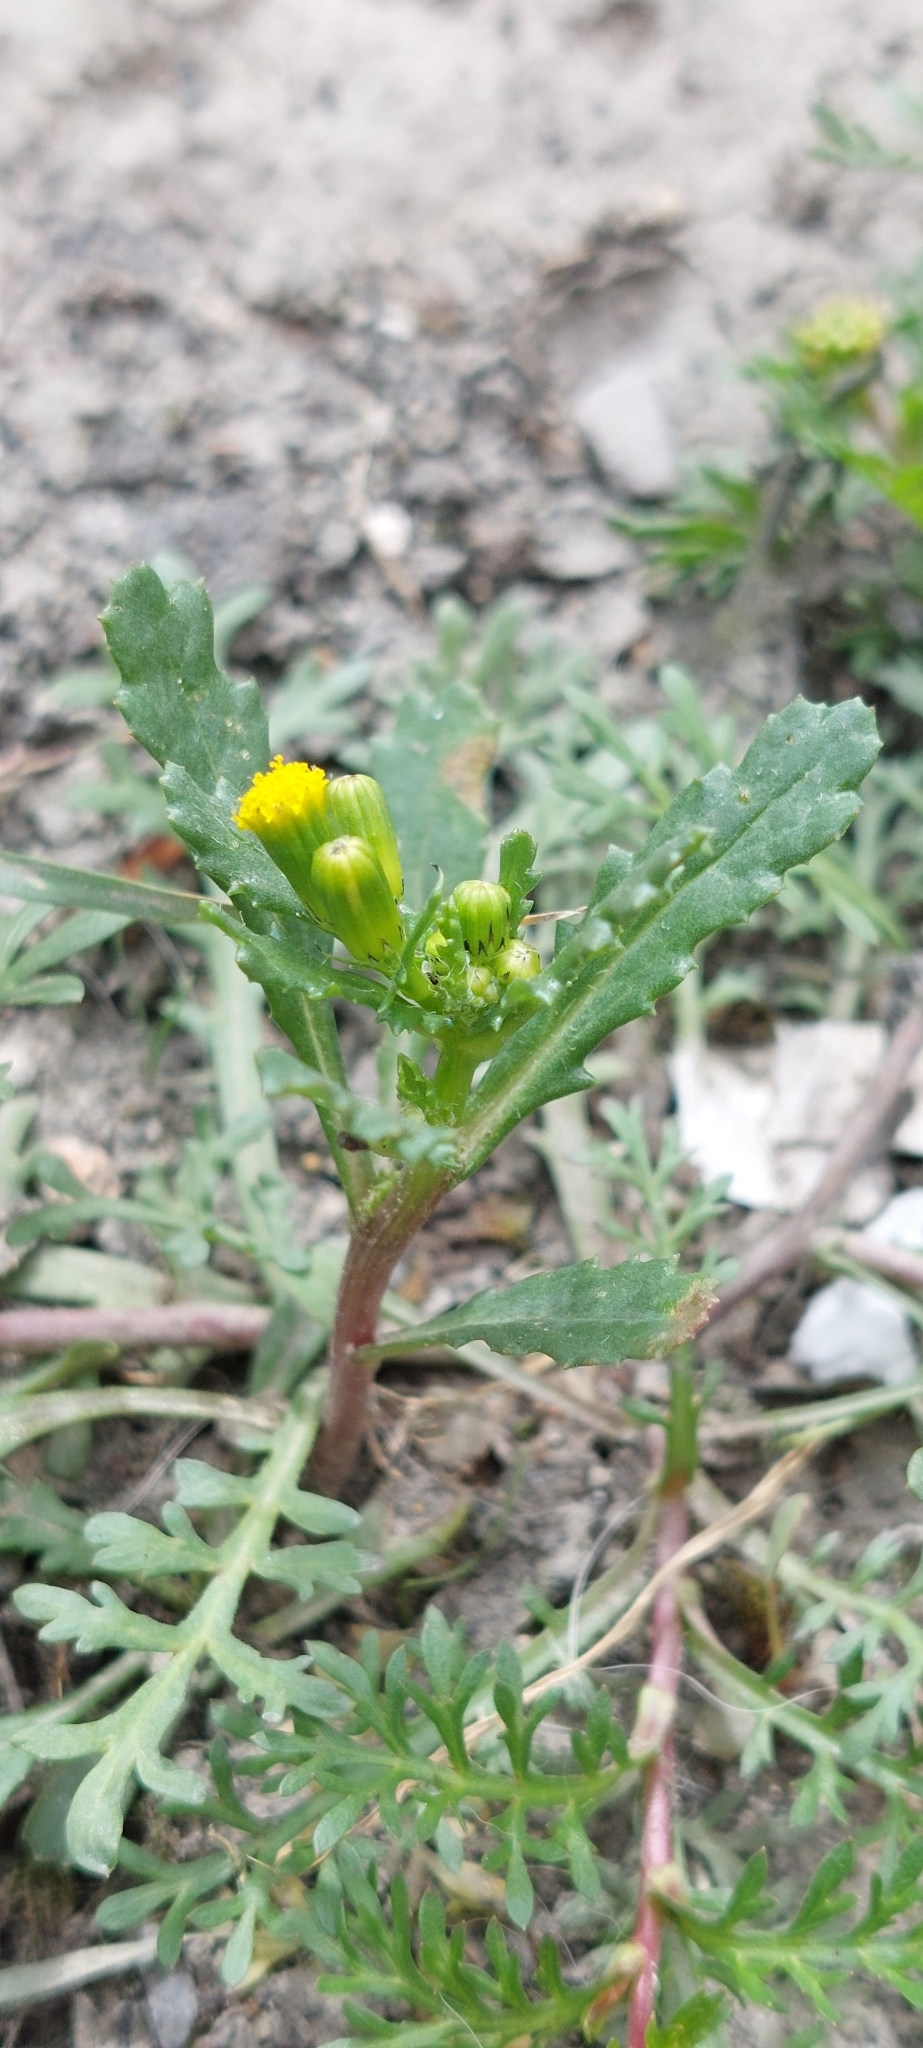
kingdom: Plantae
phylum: Tracheophyta
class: Magnoliopsida
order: Asterales
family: Asteraceae
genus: Senecio
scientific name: Senecio vulgaris
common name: Old-man-in-the-spring
